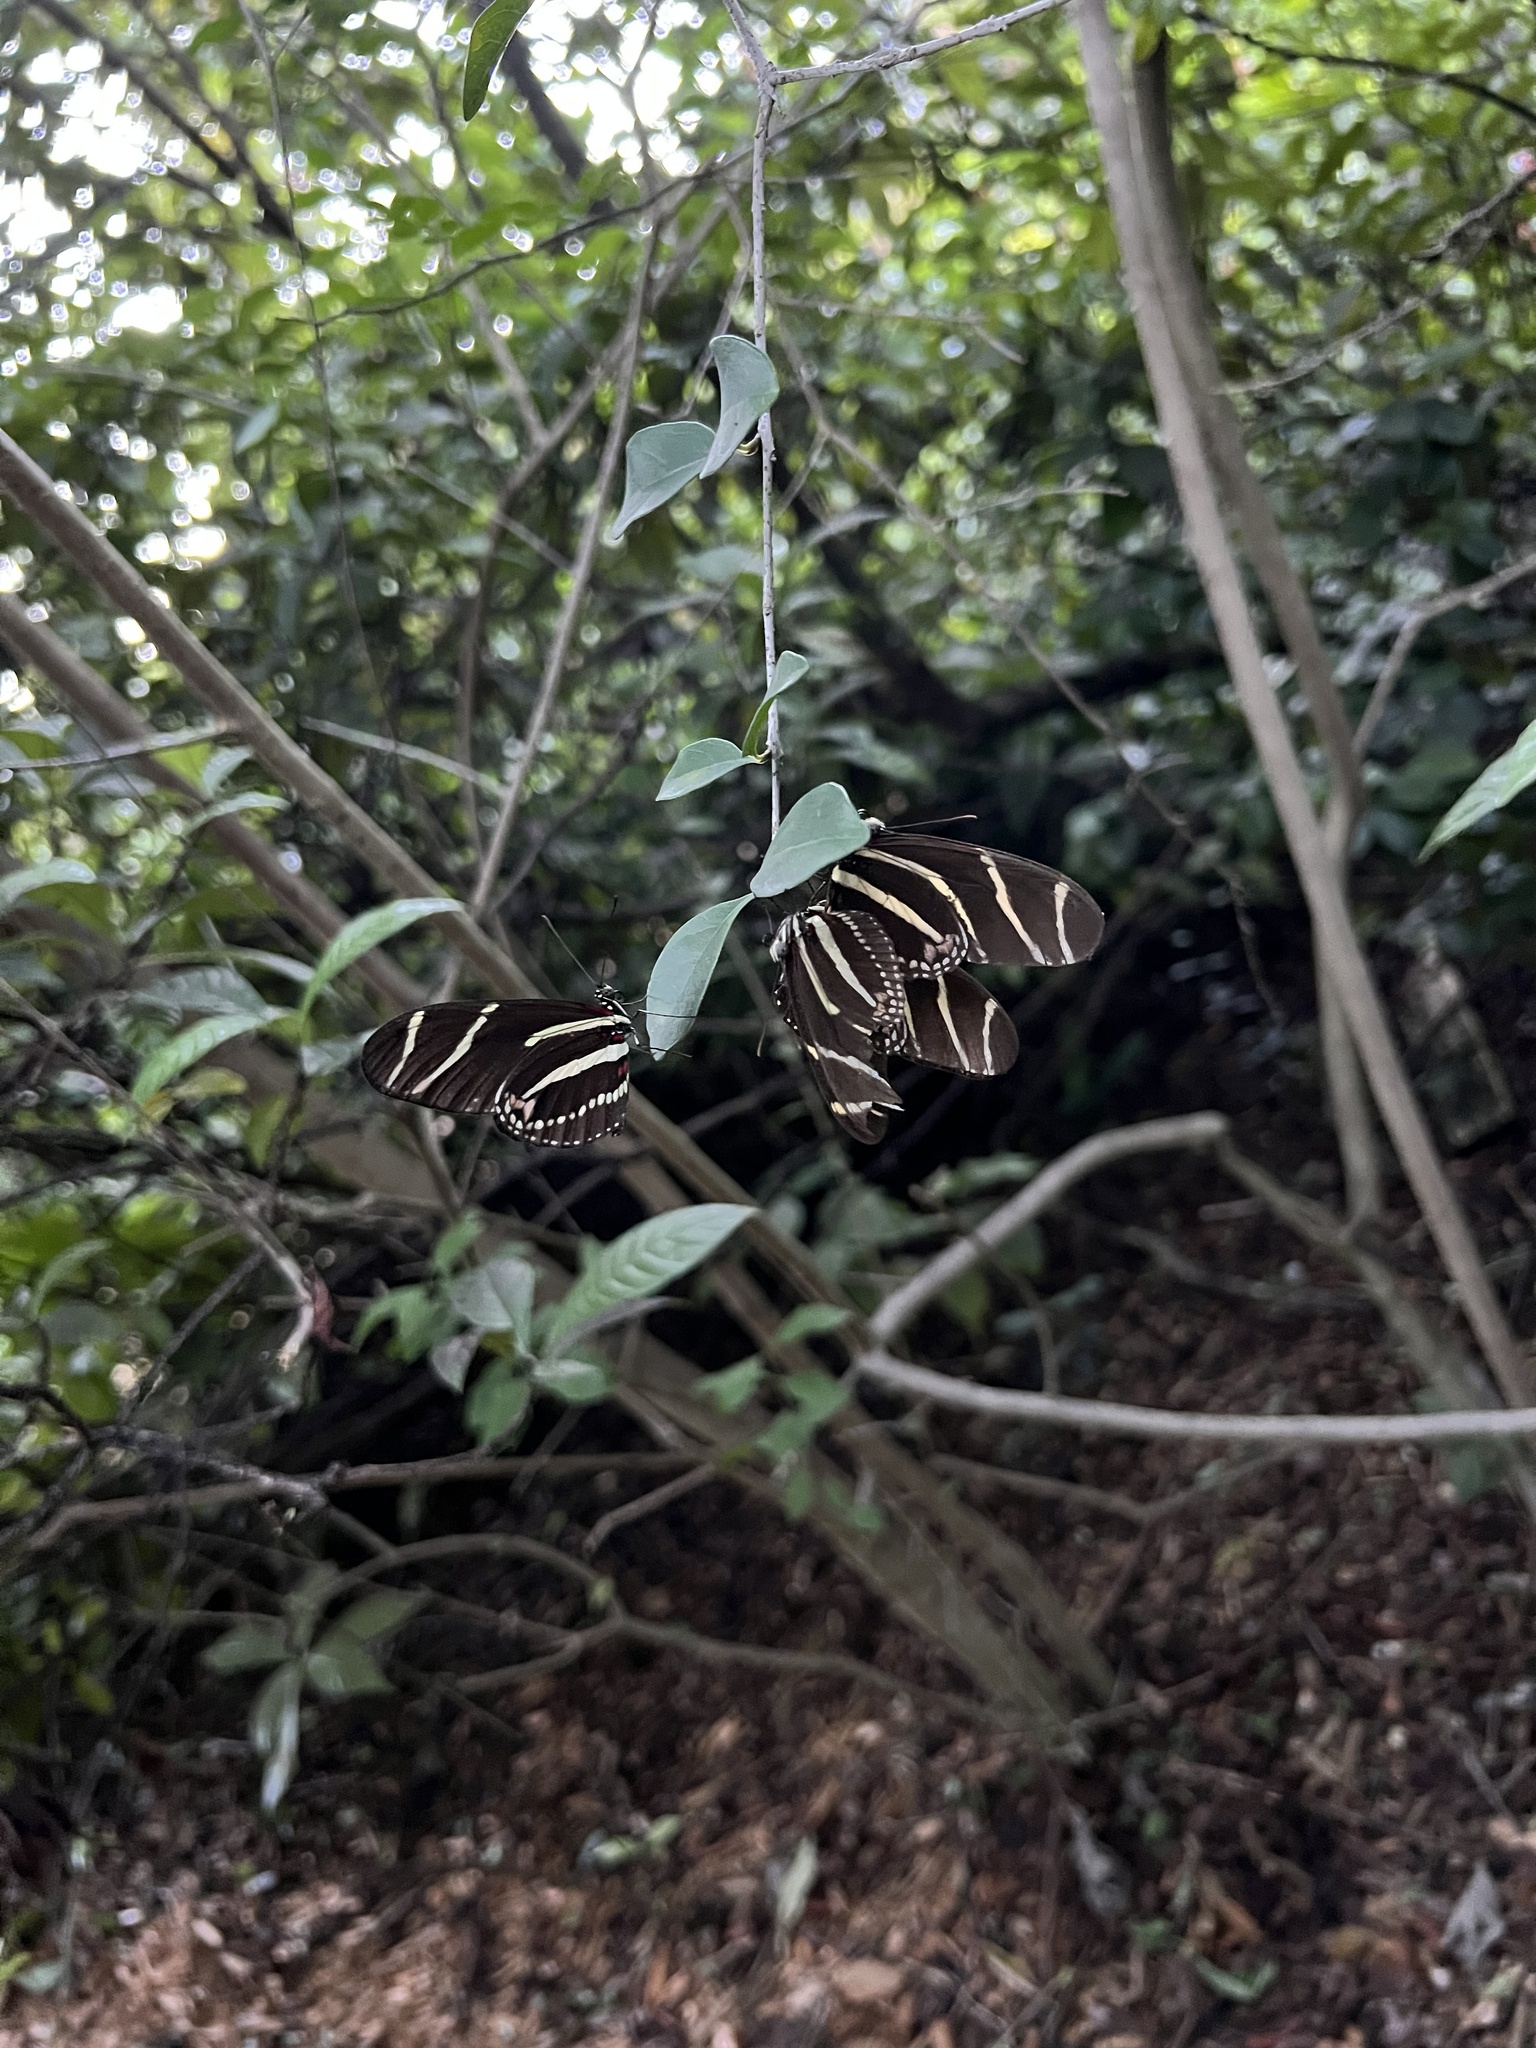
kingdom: Animalia
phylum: Arthropoda
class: Insecta
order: Lepidoptera
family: Nymphalidae
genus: Heliconius
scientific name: Heliconius charithonia
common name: Zebra long wing
